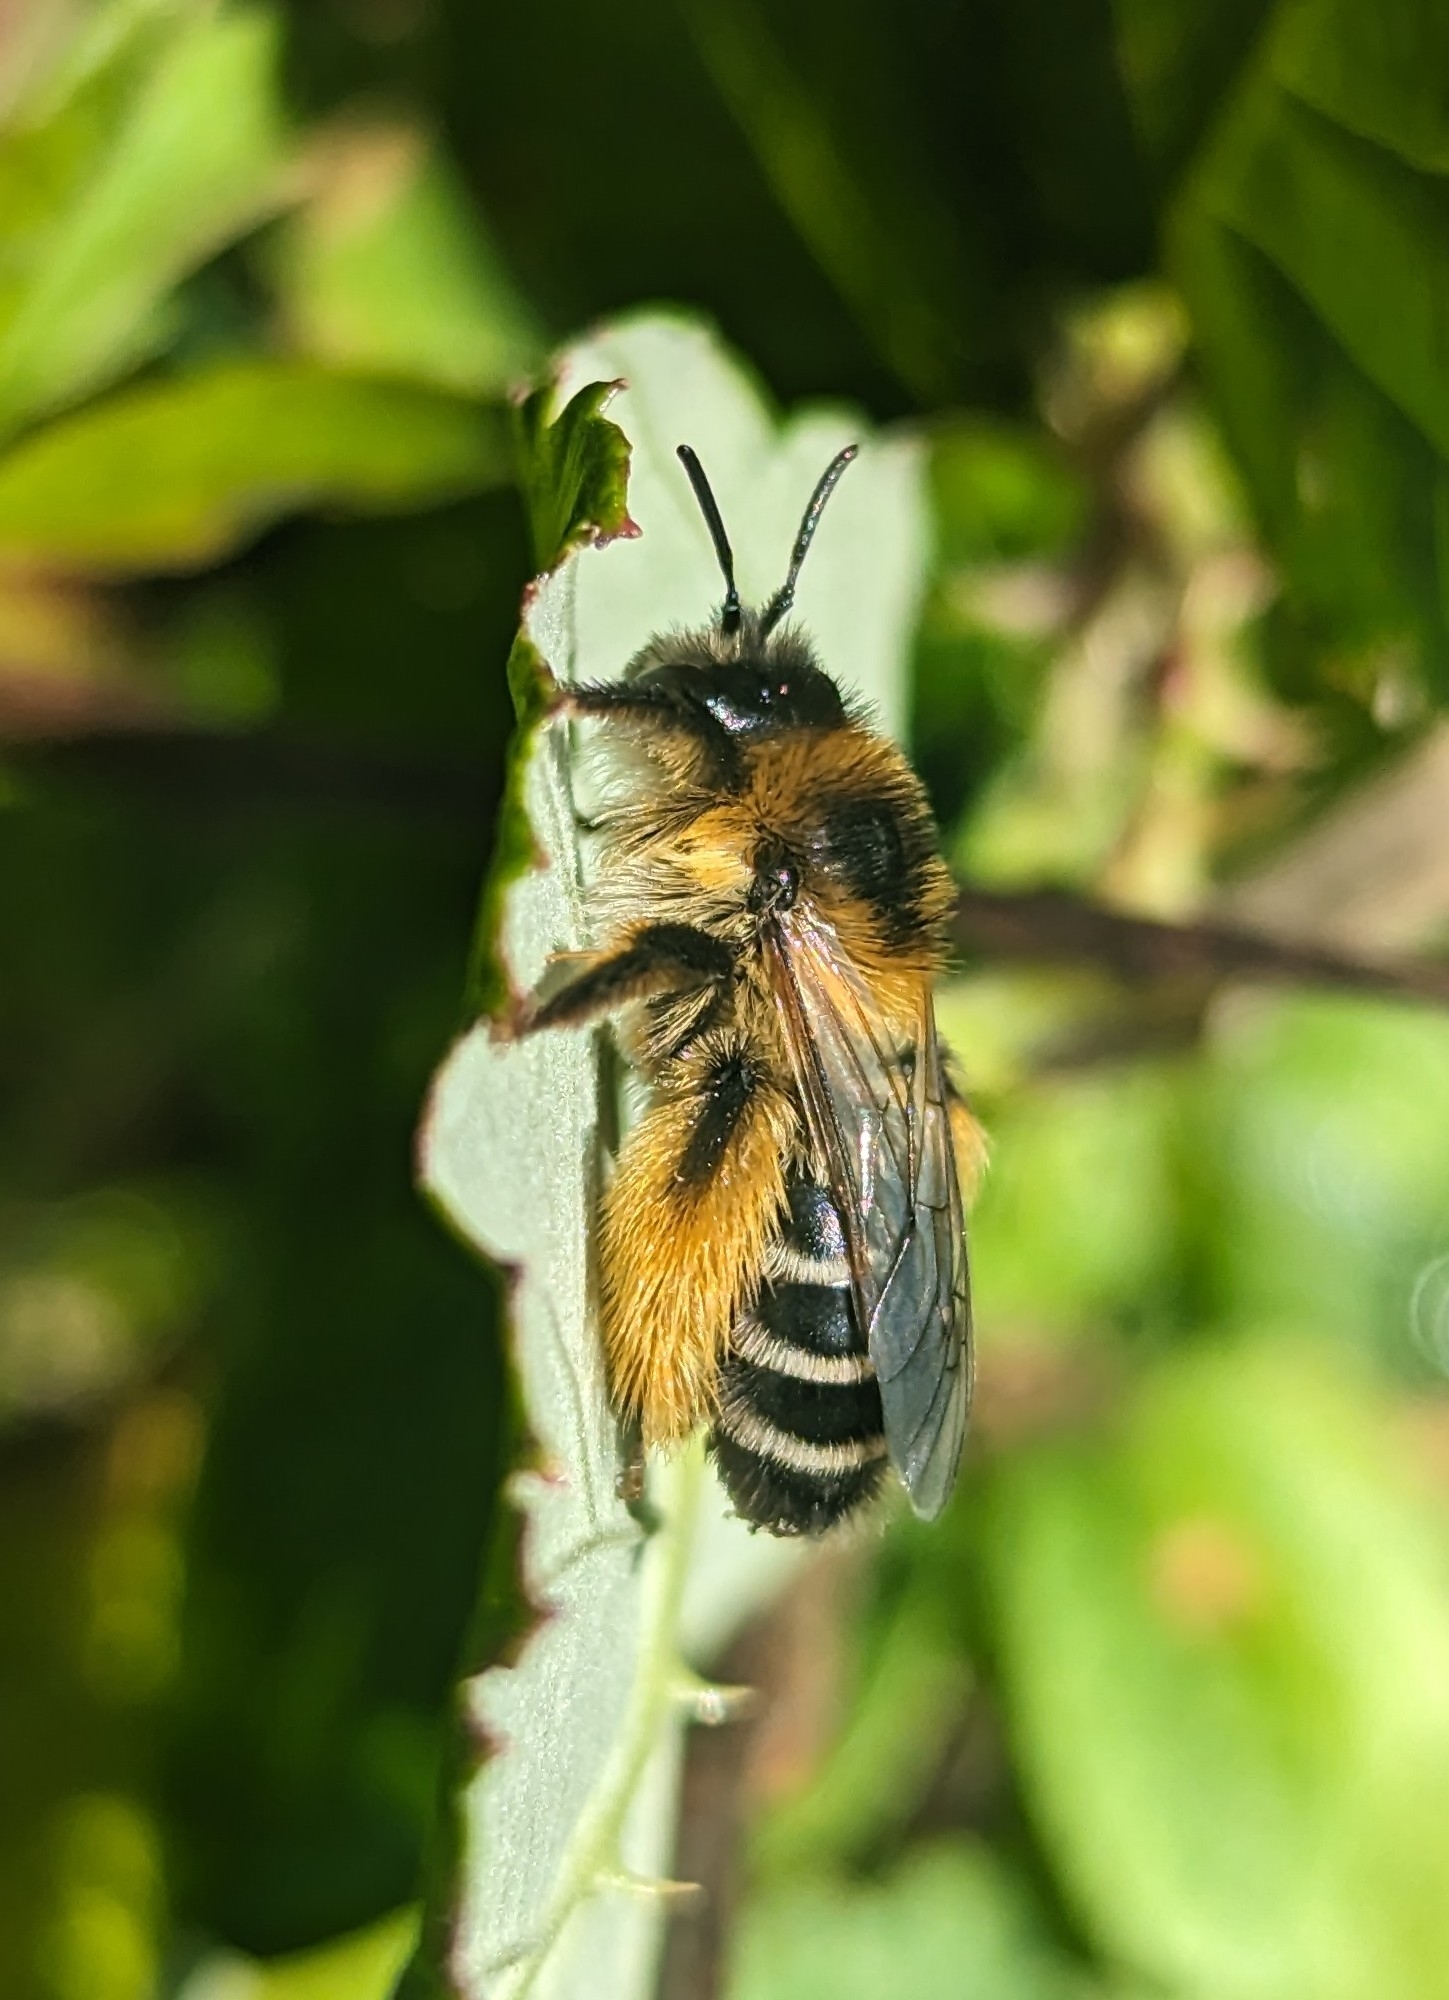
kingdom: Animalia
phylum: Arthropoda
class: Insecta
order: Hymenoptera
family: Melittidae
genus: Dasypoda
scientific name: Dasypoda hirtipes
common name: Pantaloon bee
